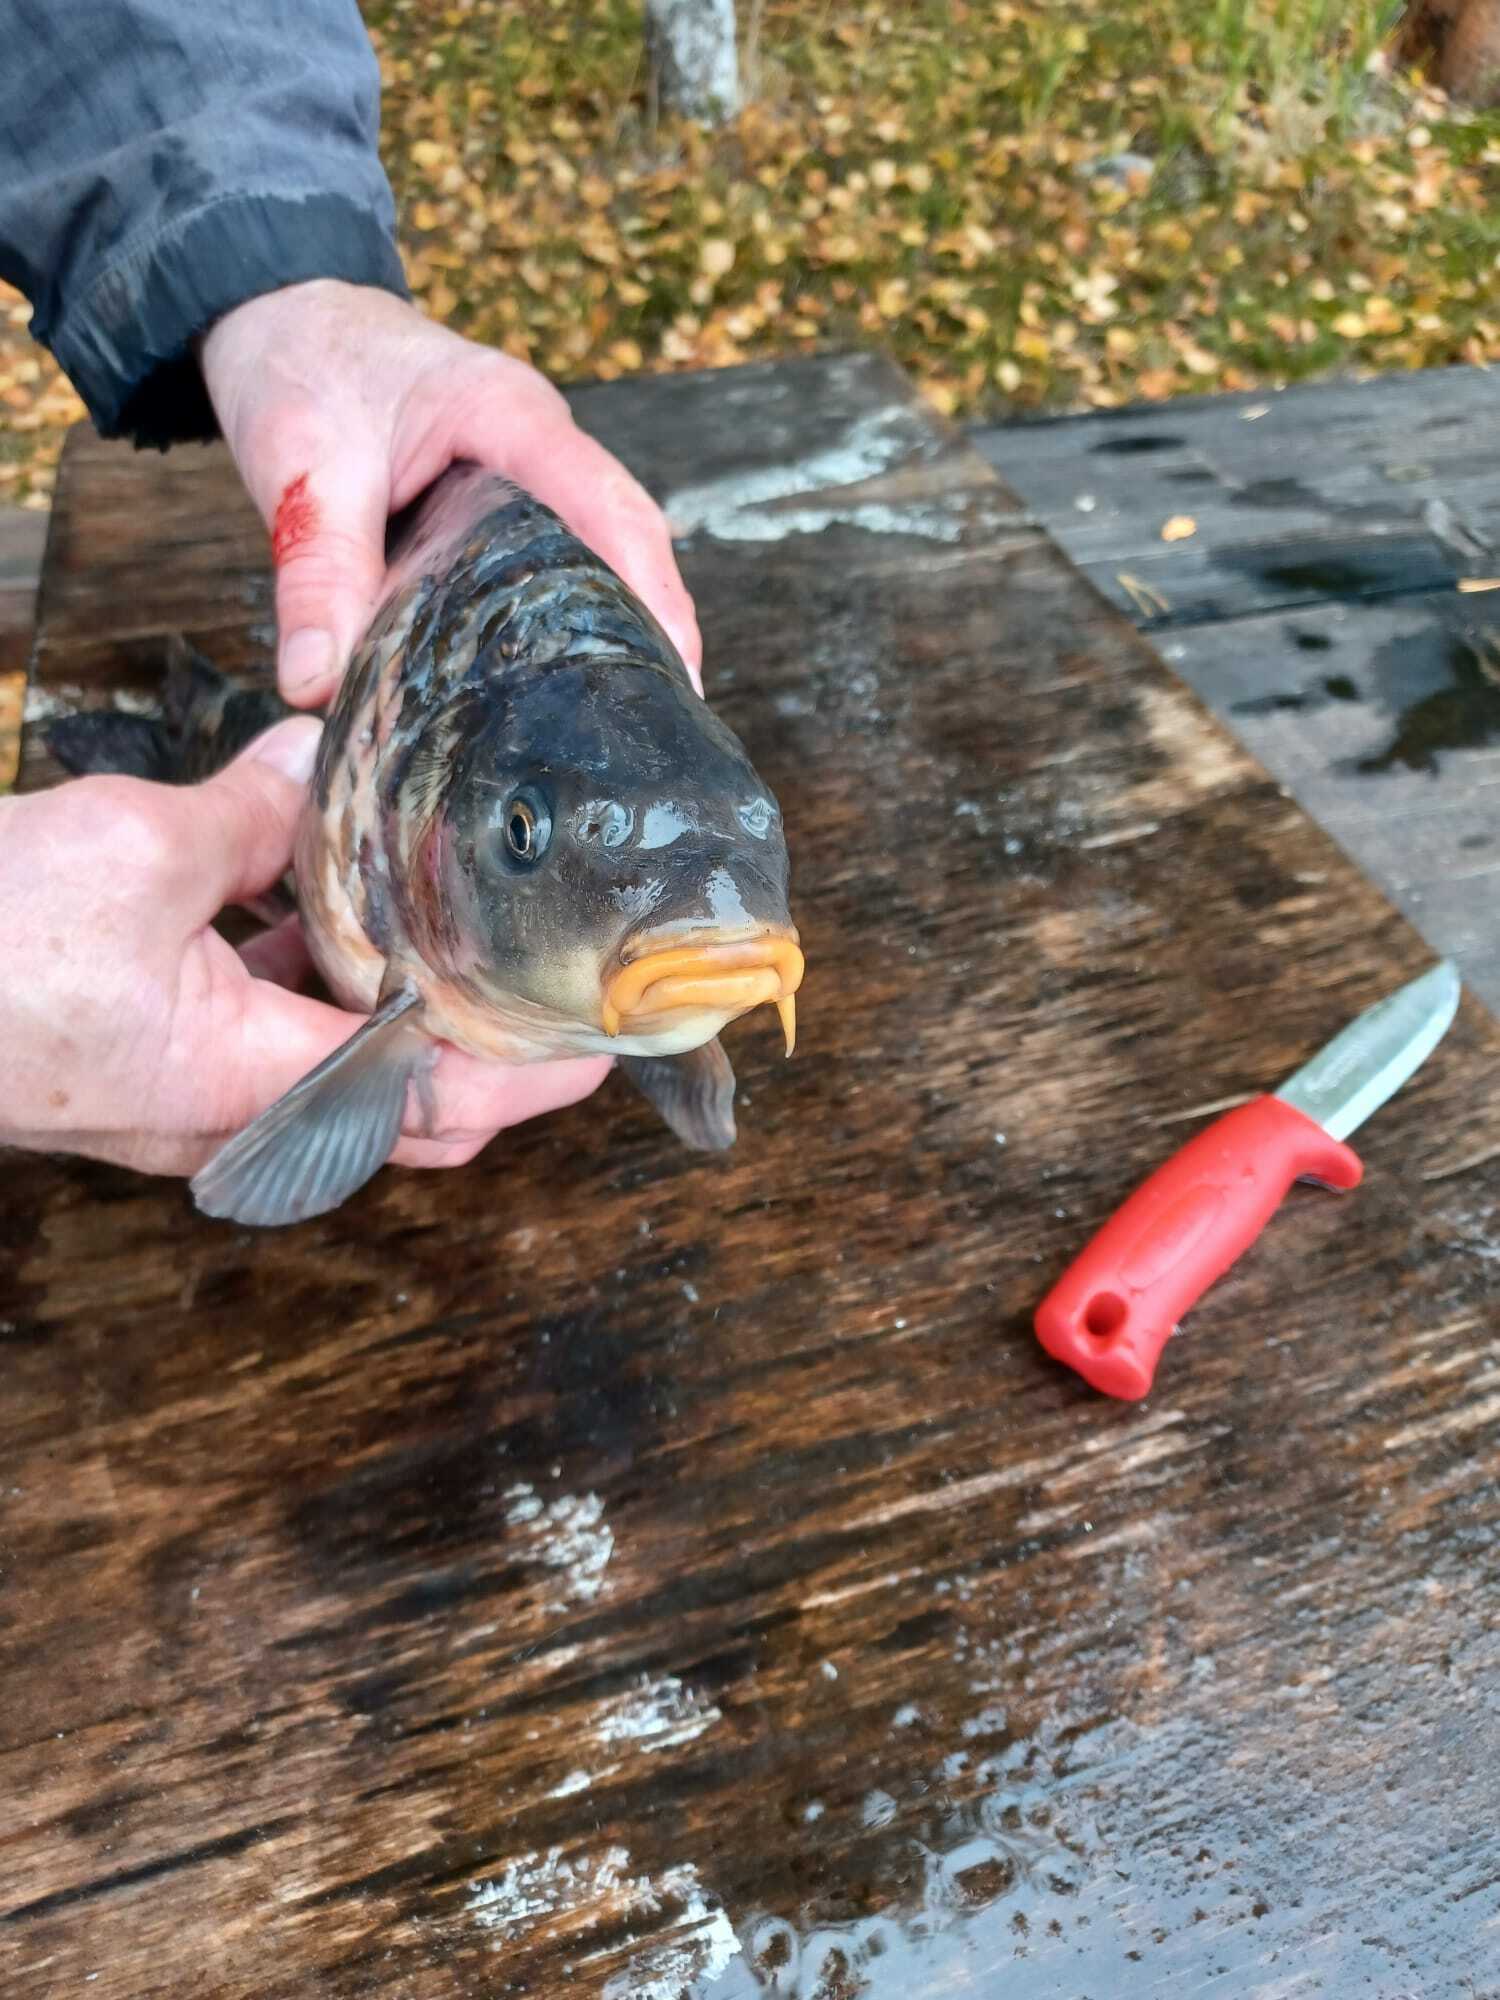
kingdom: Animalia
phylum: Chordata
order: Cypriniformes
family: Cyprinidae
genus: Cyprinus
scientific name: Cyprinus carpio
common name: Common carp
